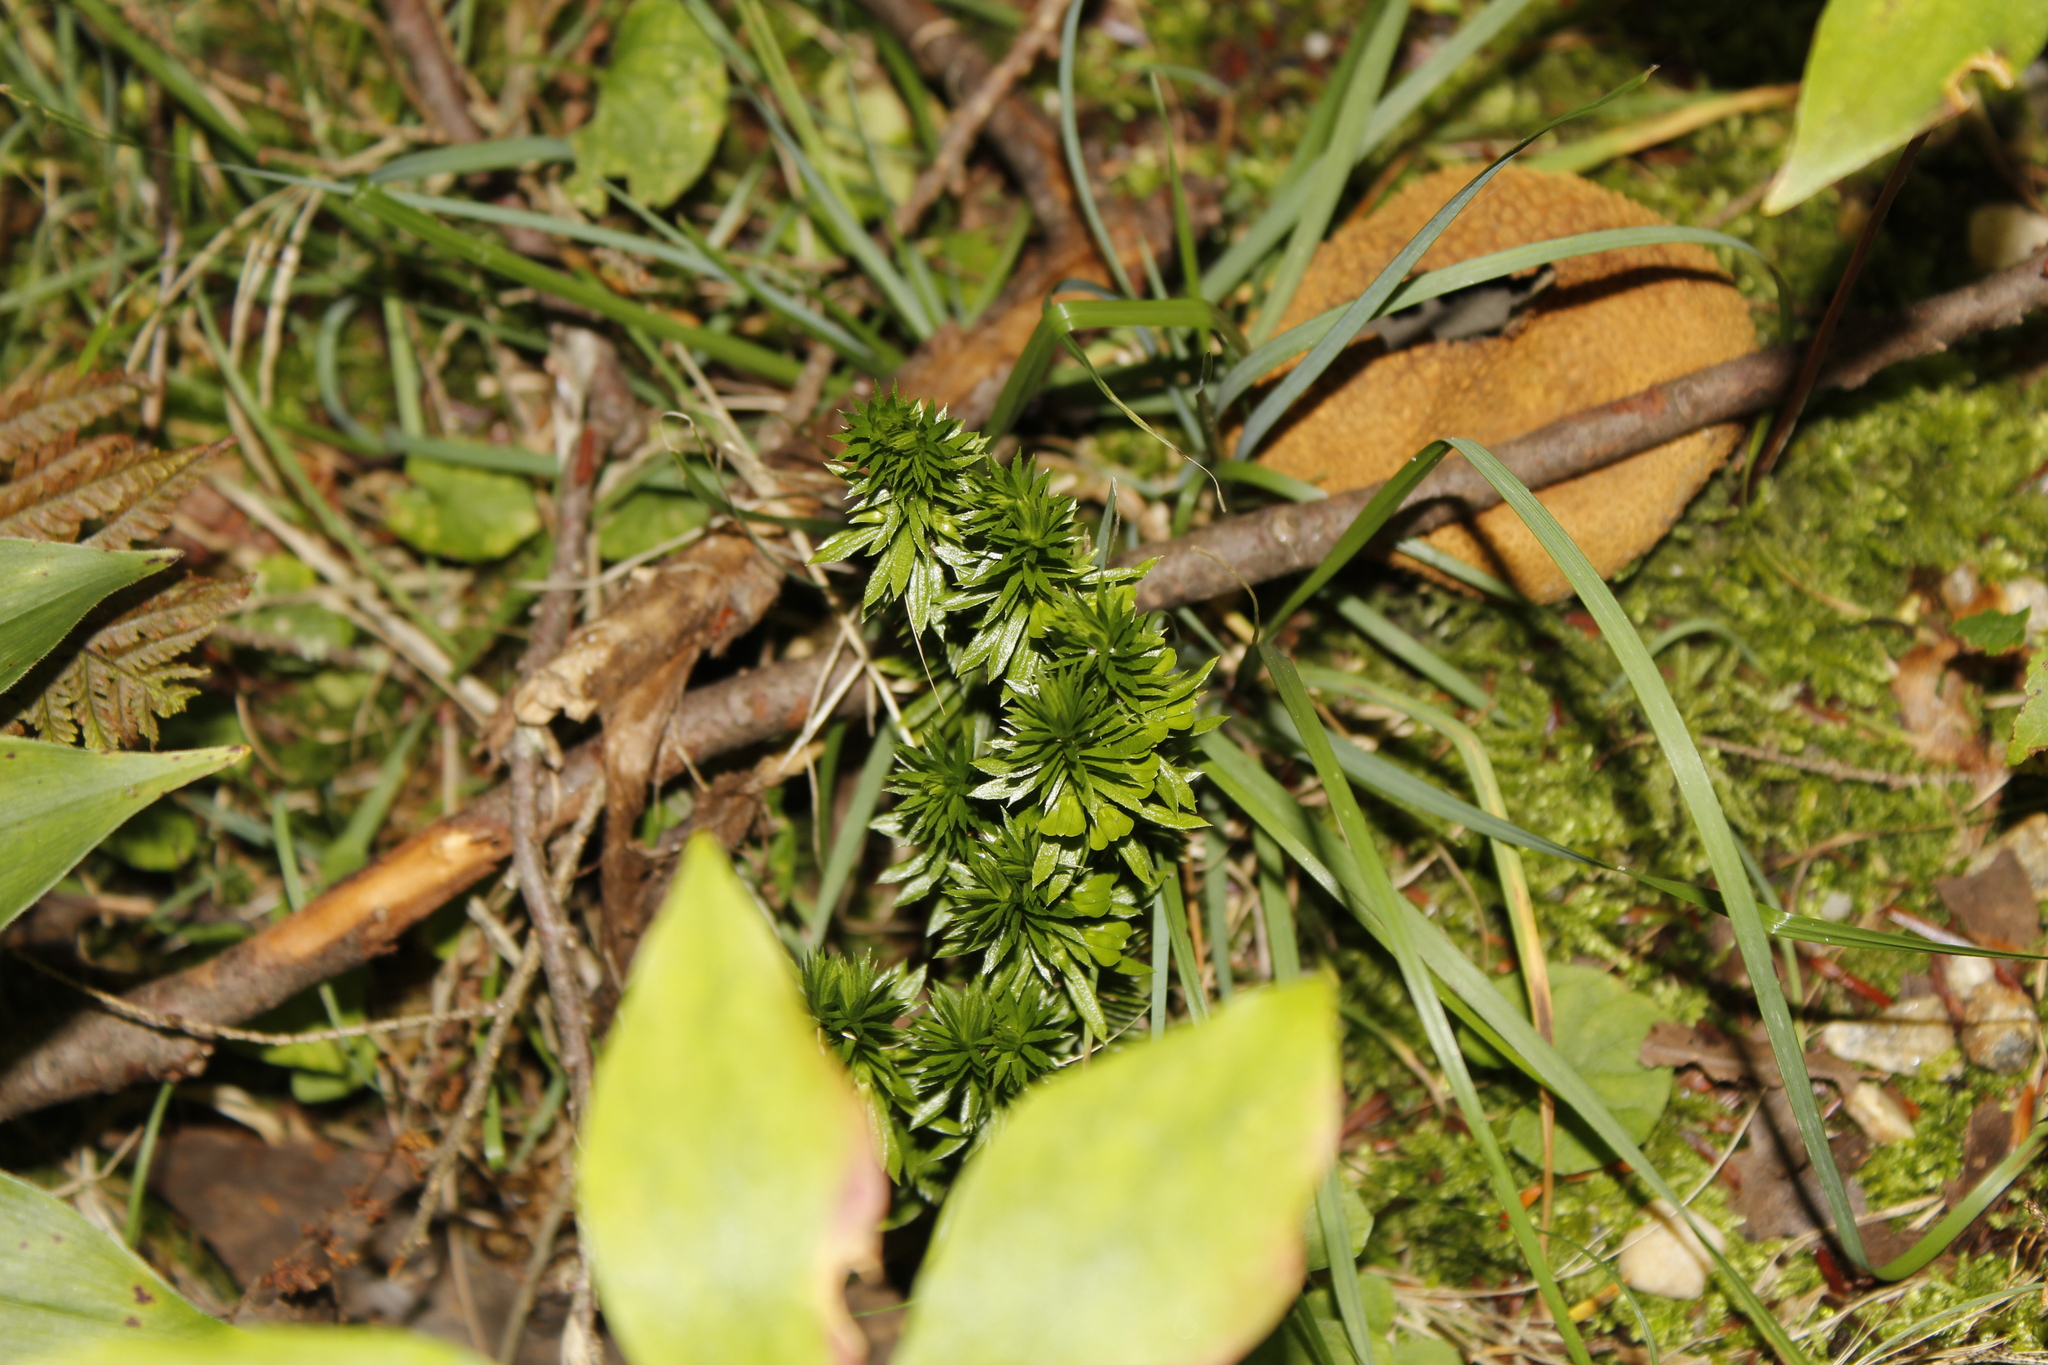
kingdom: Plantae
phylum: Tracheophyta
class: Lycopodiopsida
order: Lycopodiales
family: Lycopodiaceae
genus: Huperzia
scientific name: Huperzia lucidula
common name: Shining clubmoss
